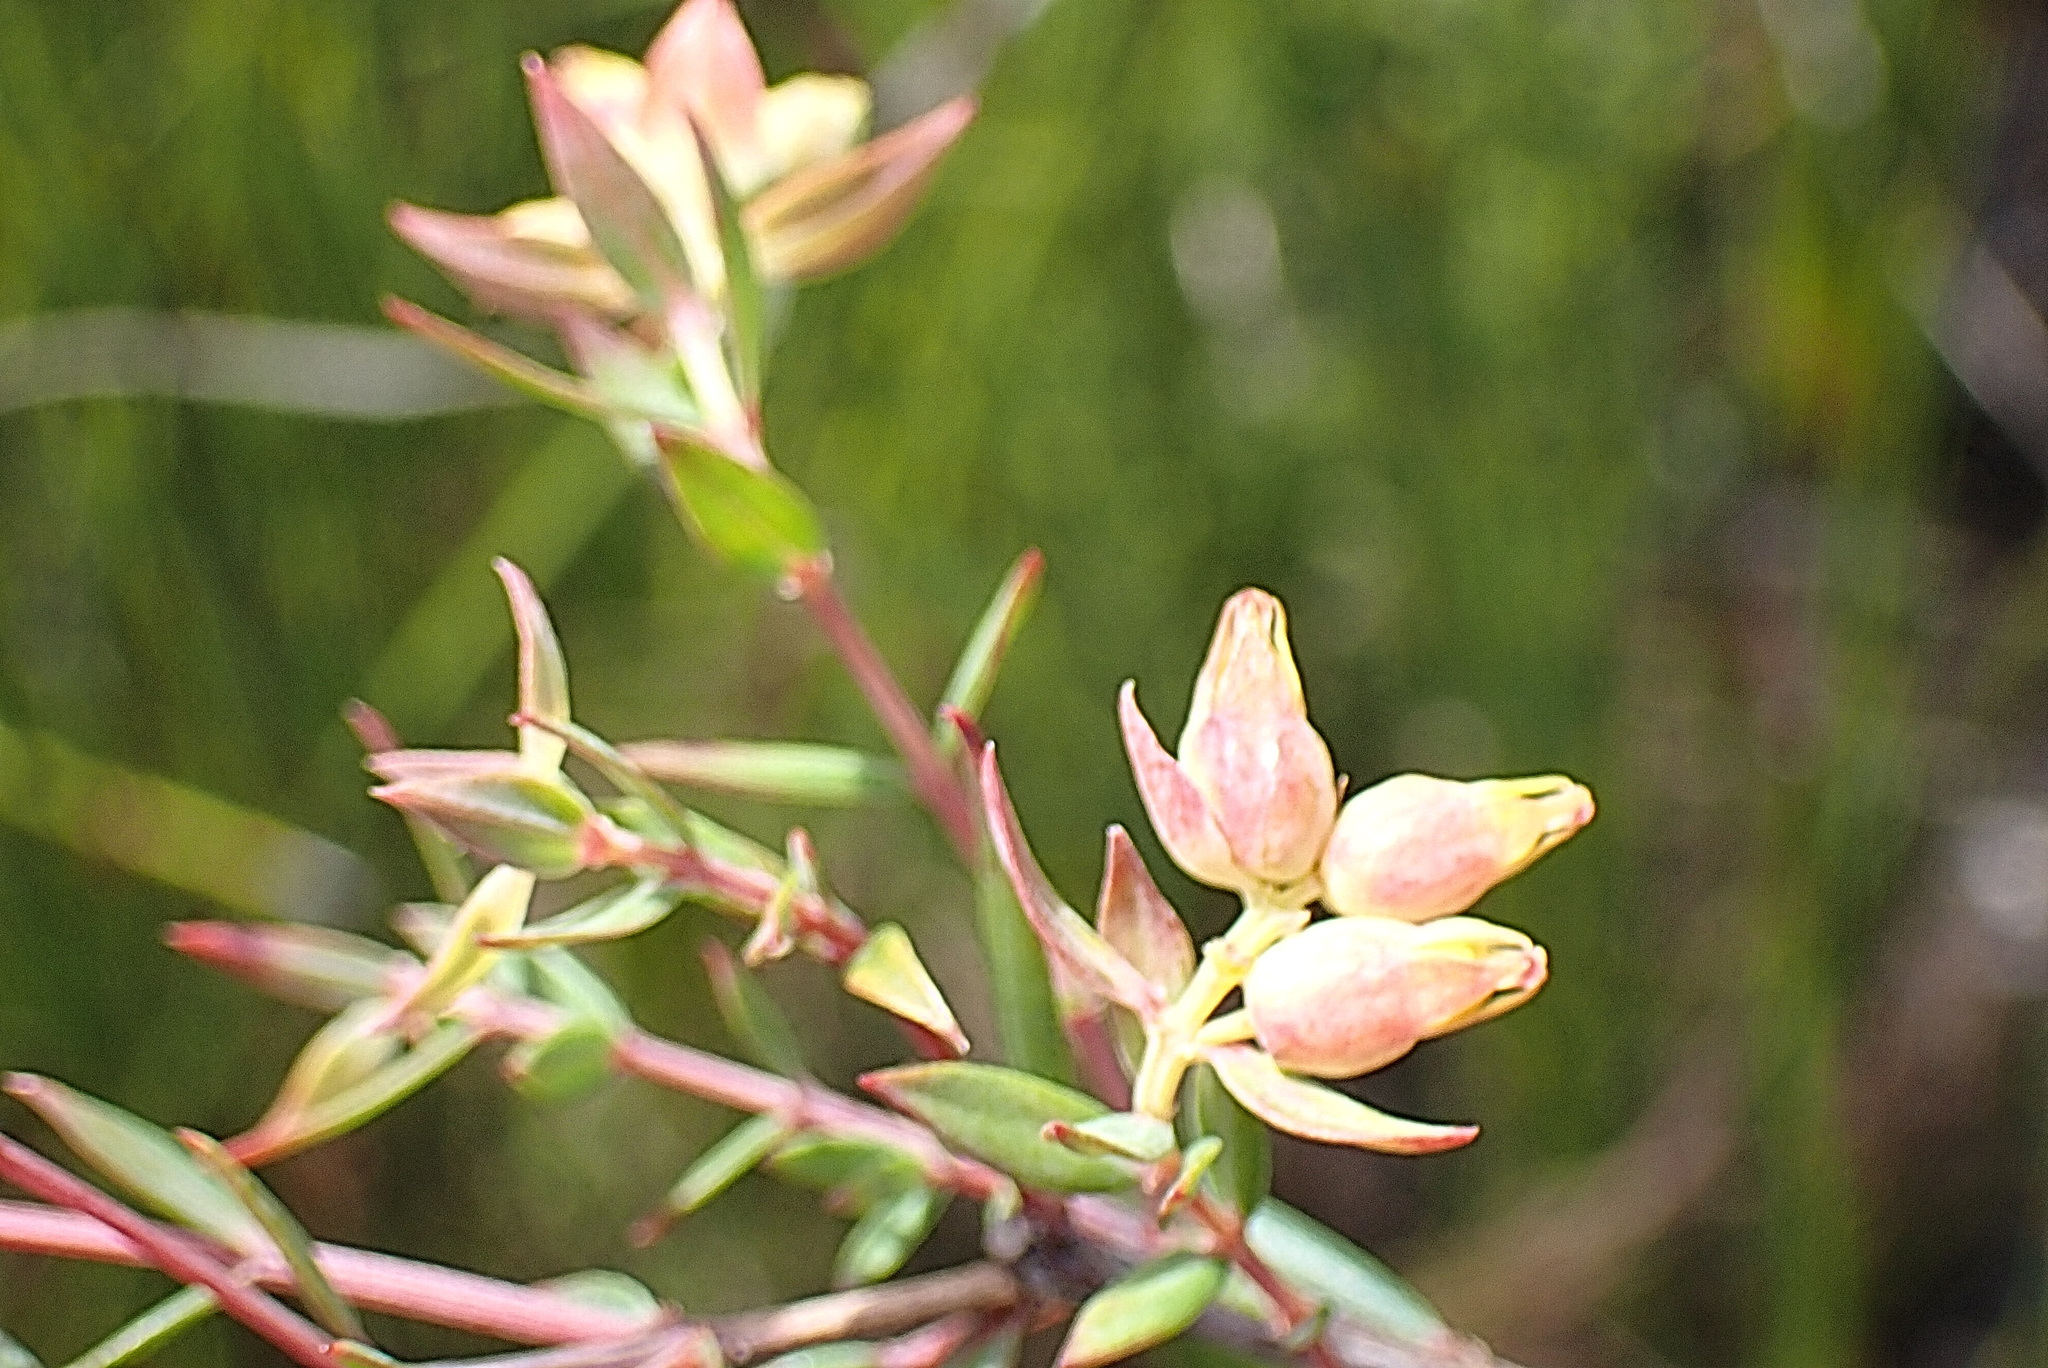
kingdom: Plantae
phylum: Tracheophyta
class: Magnoliopsida
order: Myrtales
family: Penaeaceae
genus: Penaea
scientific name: Penaea acutifolia
